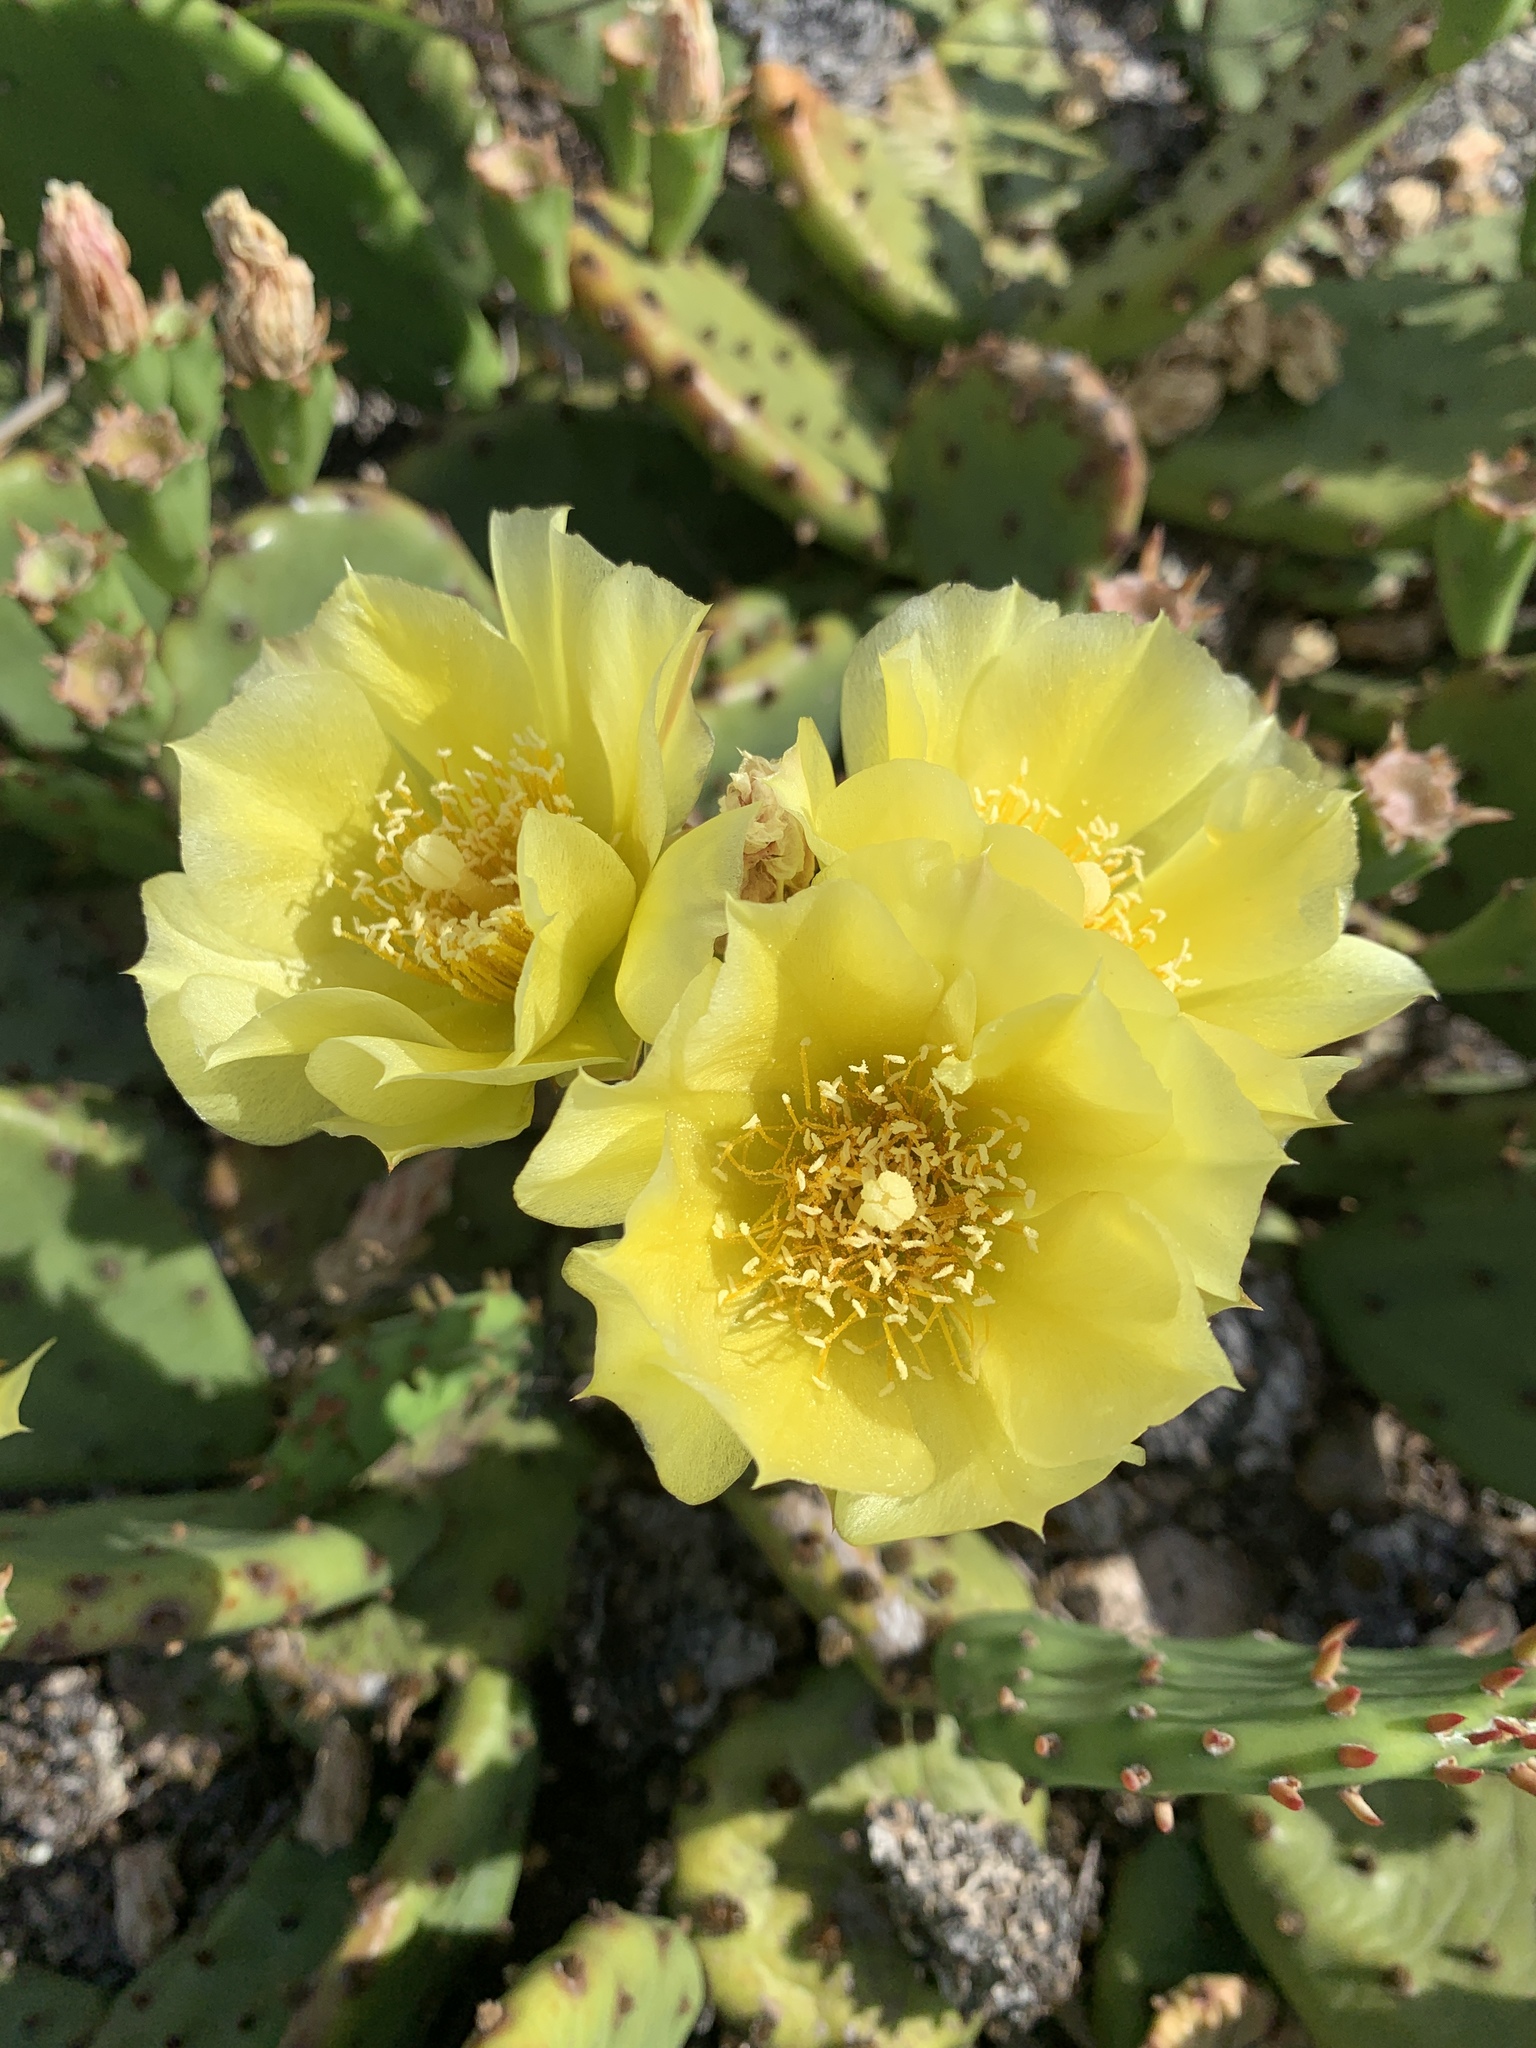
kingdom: Plantae
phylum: Tracheophyta
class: Magnoliopsida
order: Caryophyllales
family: Cactaceae
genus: Opuntia
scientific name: Opuntia humifusa
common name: Eastern prickly-pear
